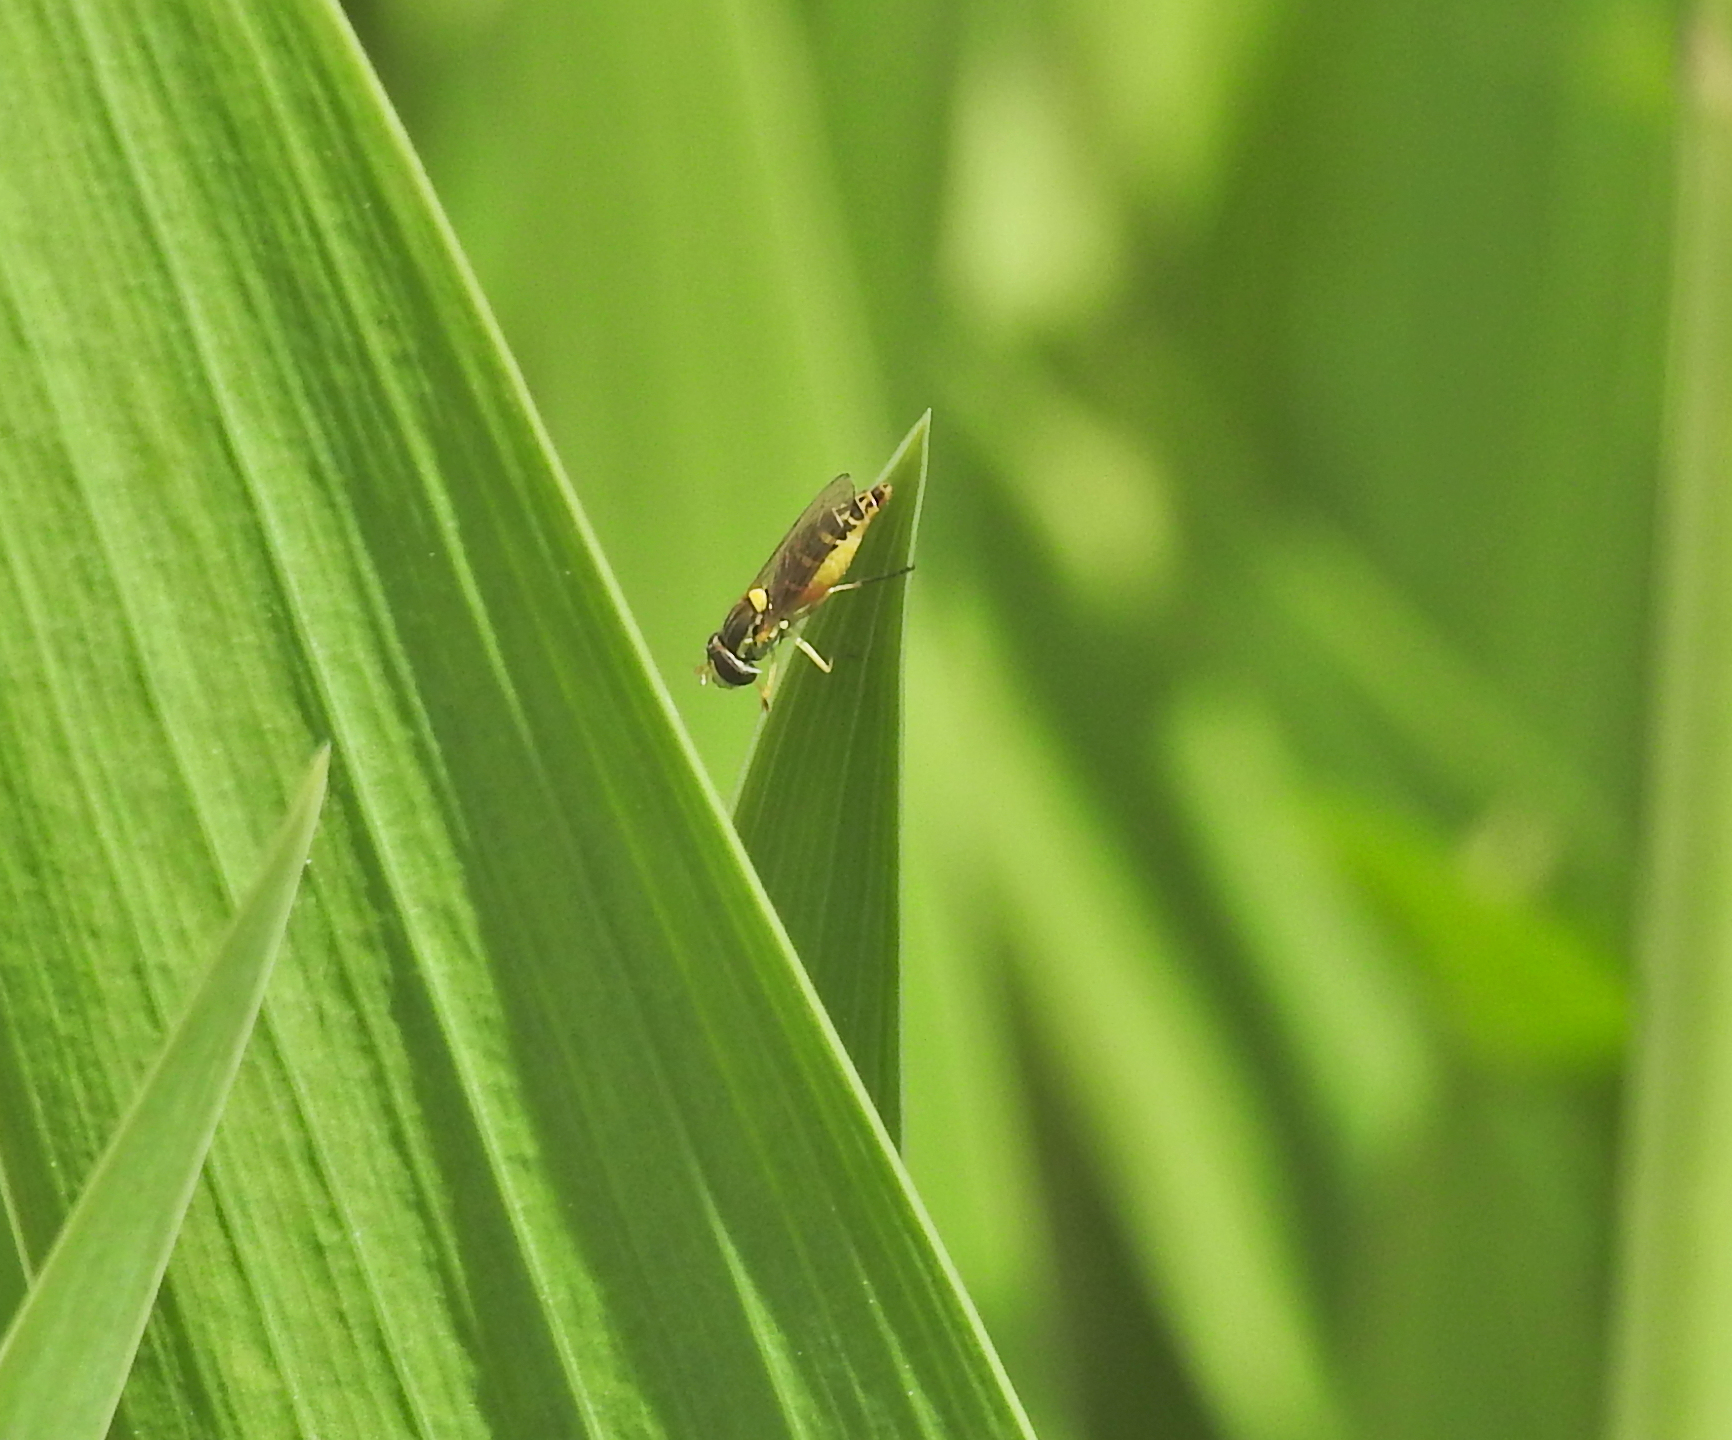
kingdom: Animalia
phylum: Arthropoda
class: Insecta
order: Diptera
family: Syrphidae
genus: Sphaerophoria
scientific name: Sphaerophoria
